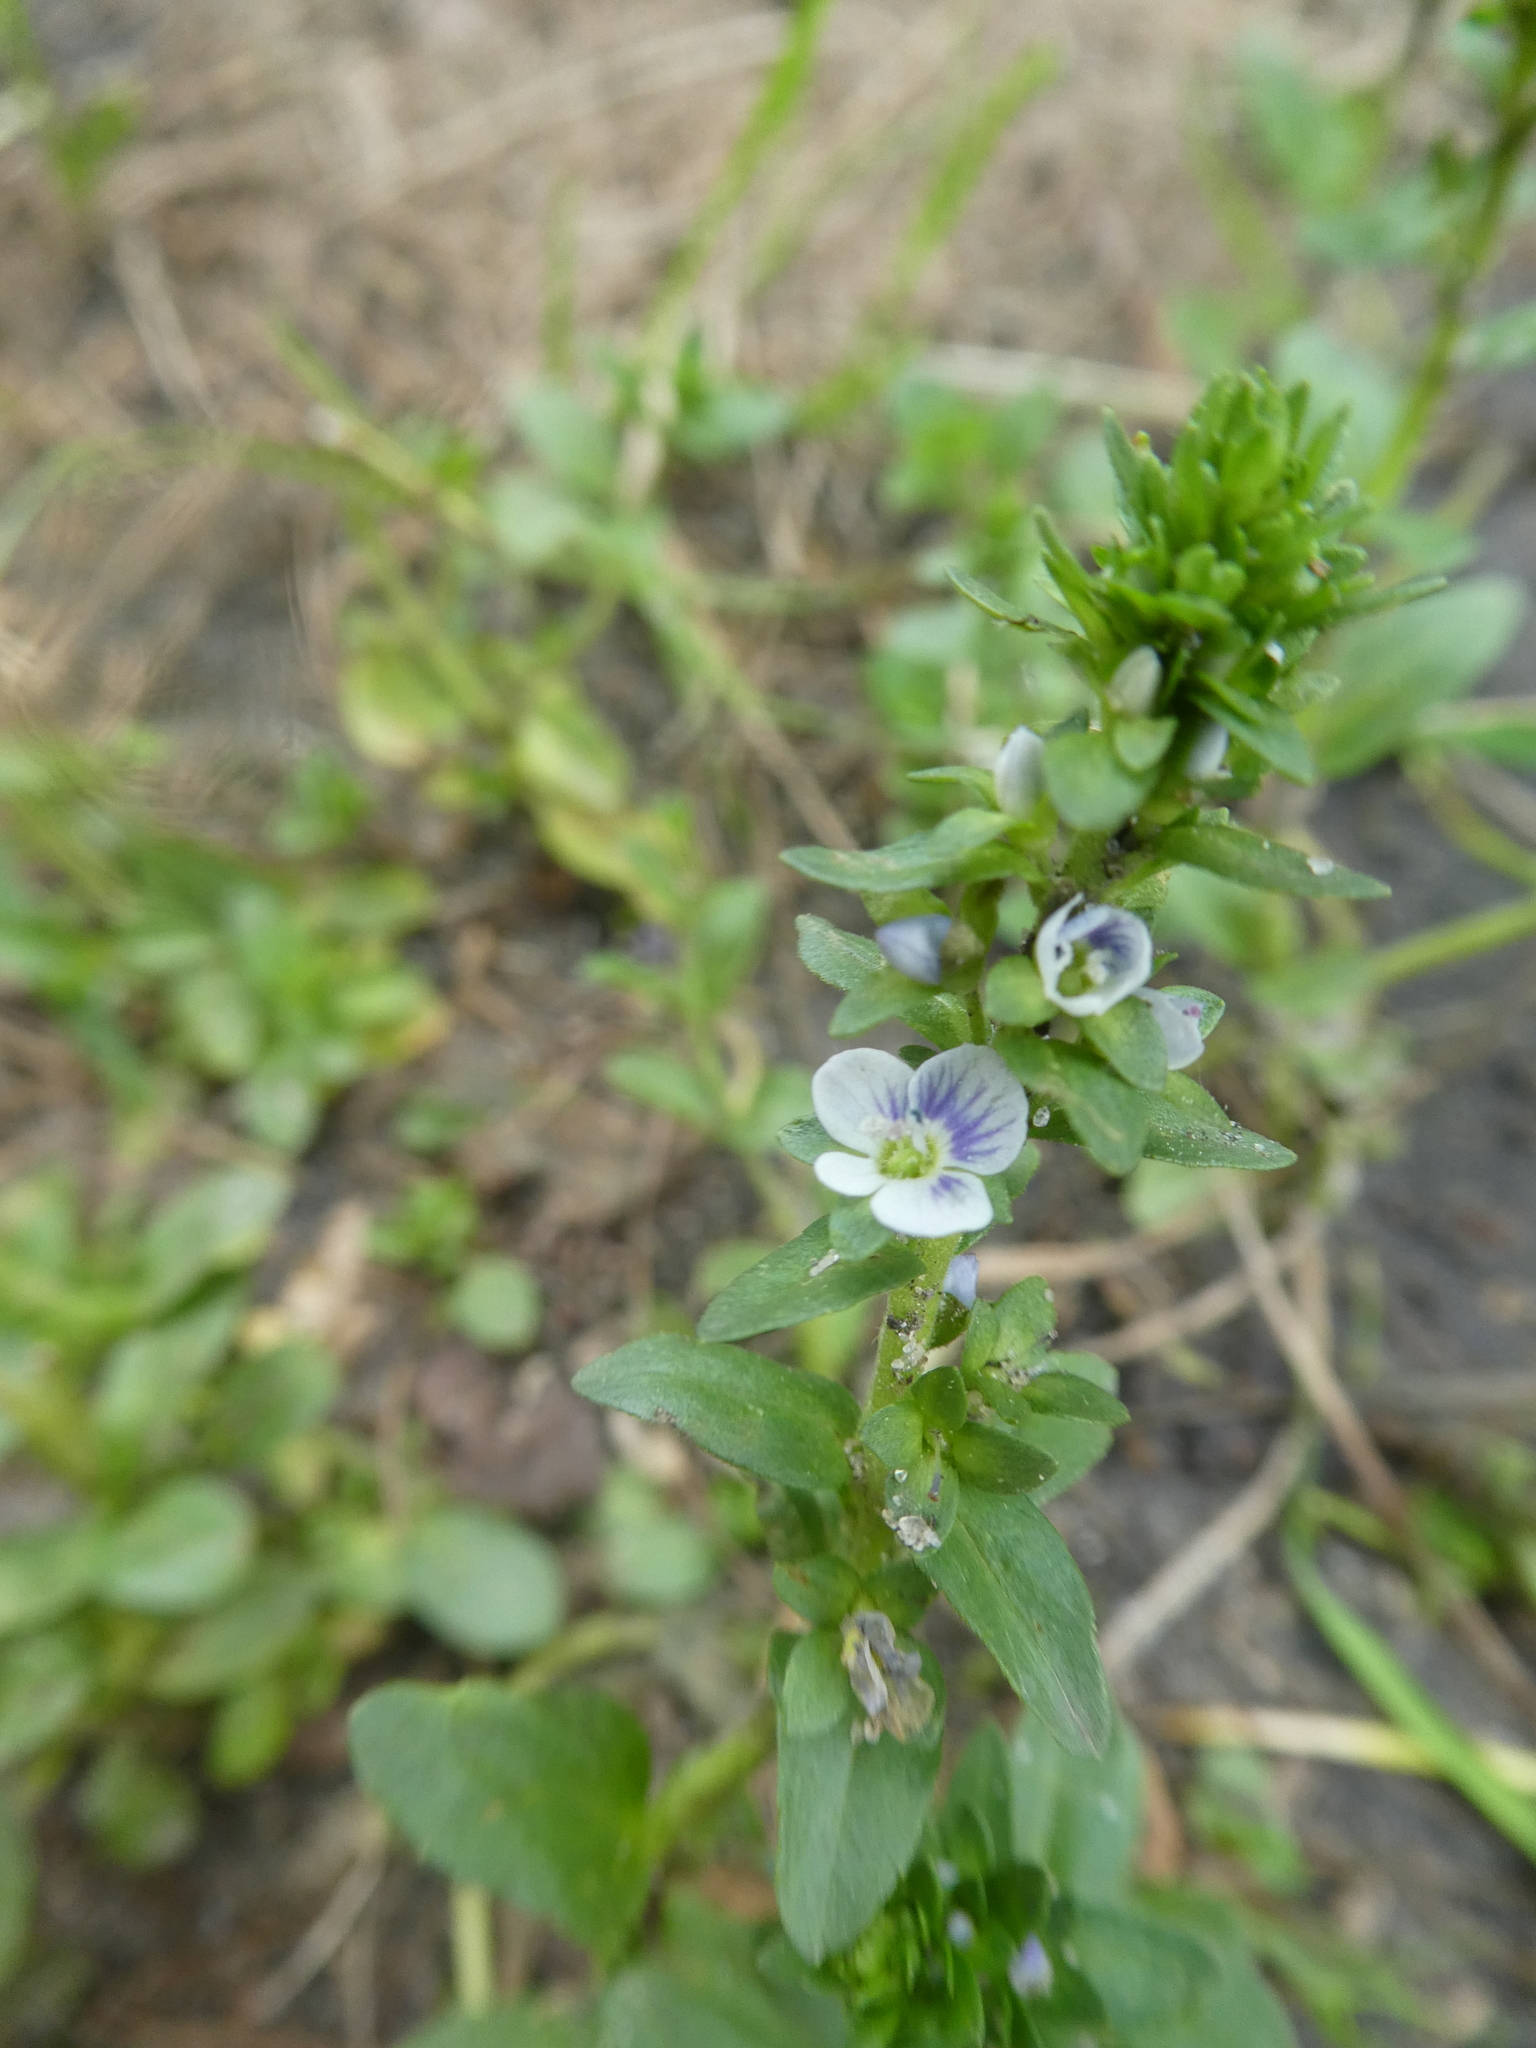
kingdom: Plantae
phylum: Tracheophyta
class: Magnoliopsida
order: Lamiales
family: Plantaginaceae
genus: Veronica
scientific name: Veronica serpyllifolia
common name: Thyme-leaved speedwell
